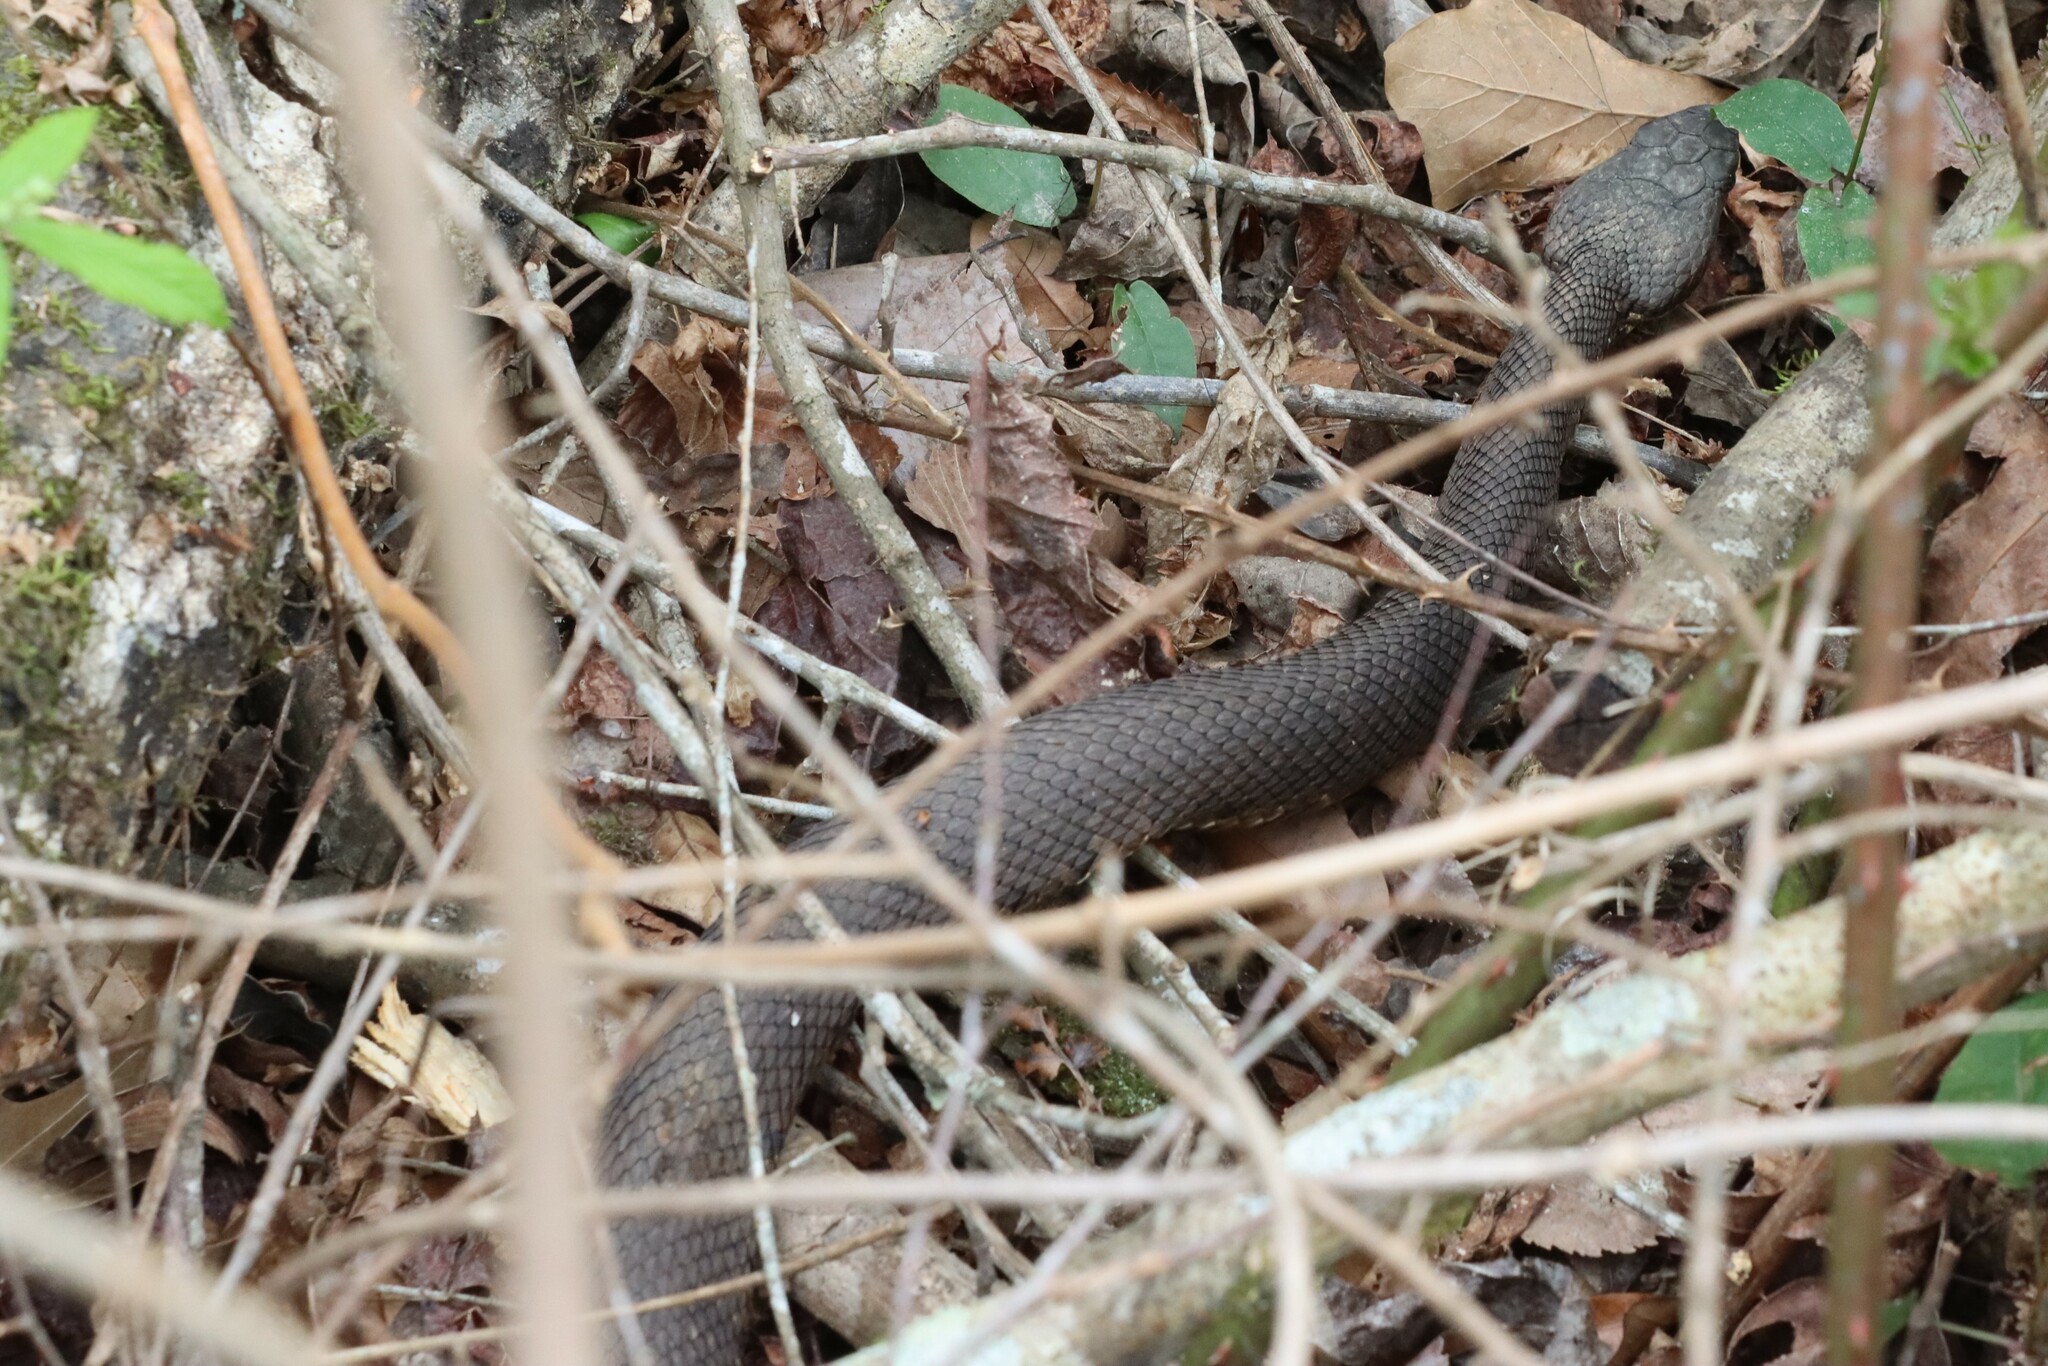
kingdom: Animalia
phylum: Chordata
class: Squamata
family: Viperidae
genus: Agkistrodon
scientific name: Agkistrodon piscivorus
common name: Cottonmouth
